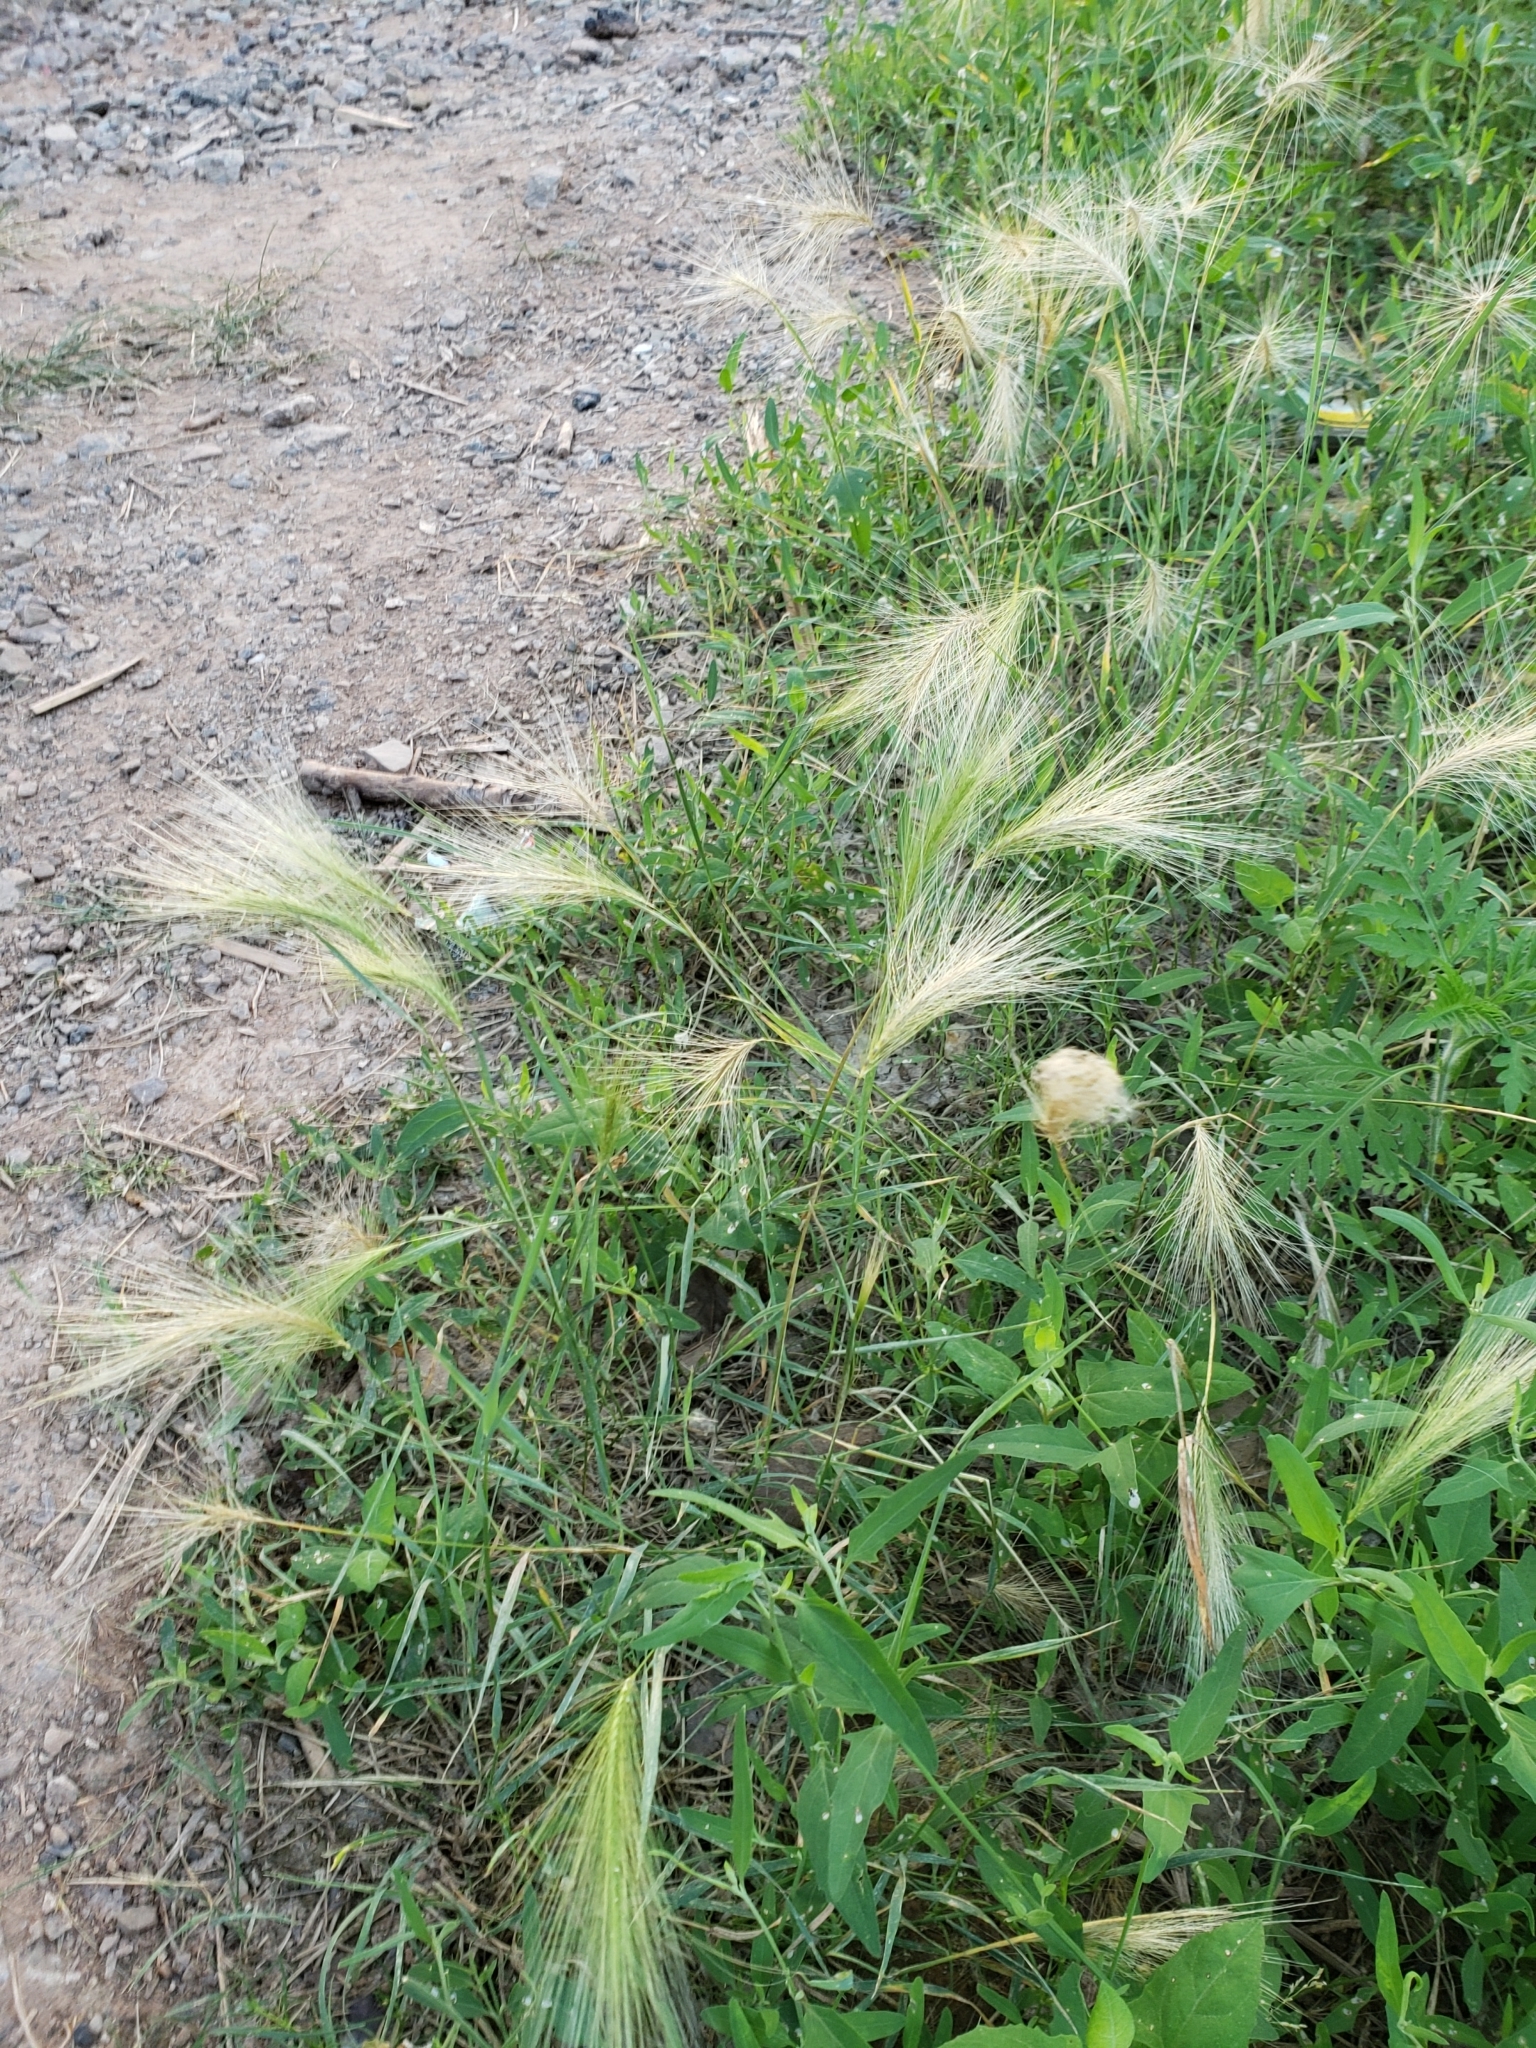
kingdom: Plantae
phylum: Tracheophyta
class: Liliopsida
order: Poales
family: Poaceae
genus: Hordeum
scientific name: Hordeum jubatum
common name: Foxtail barley
